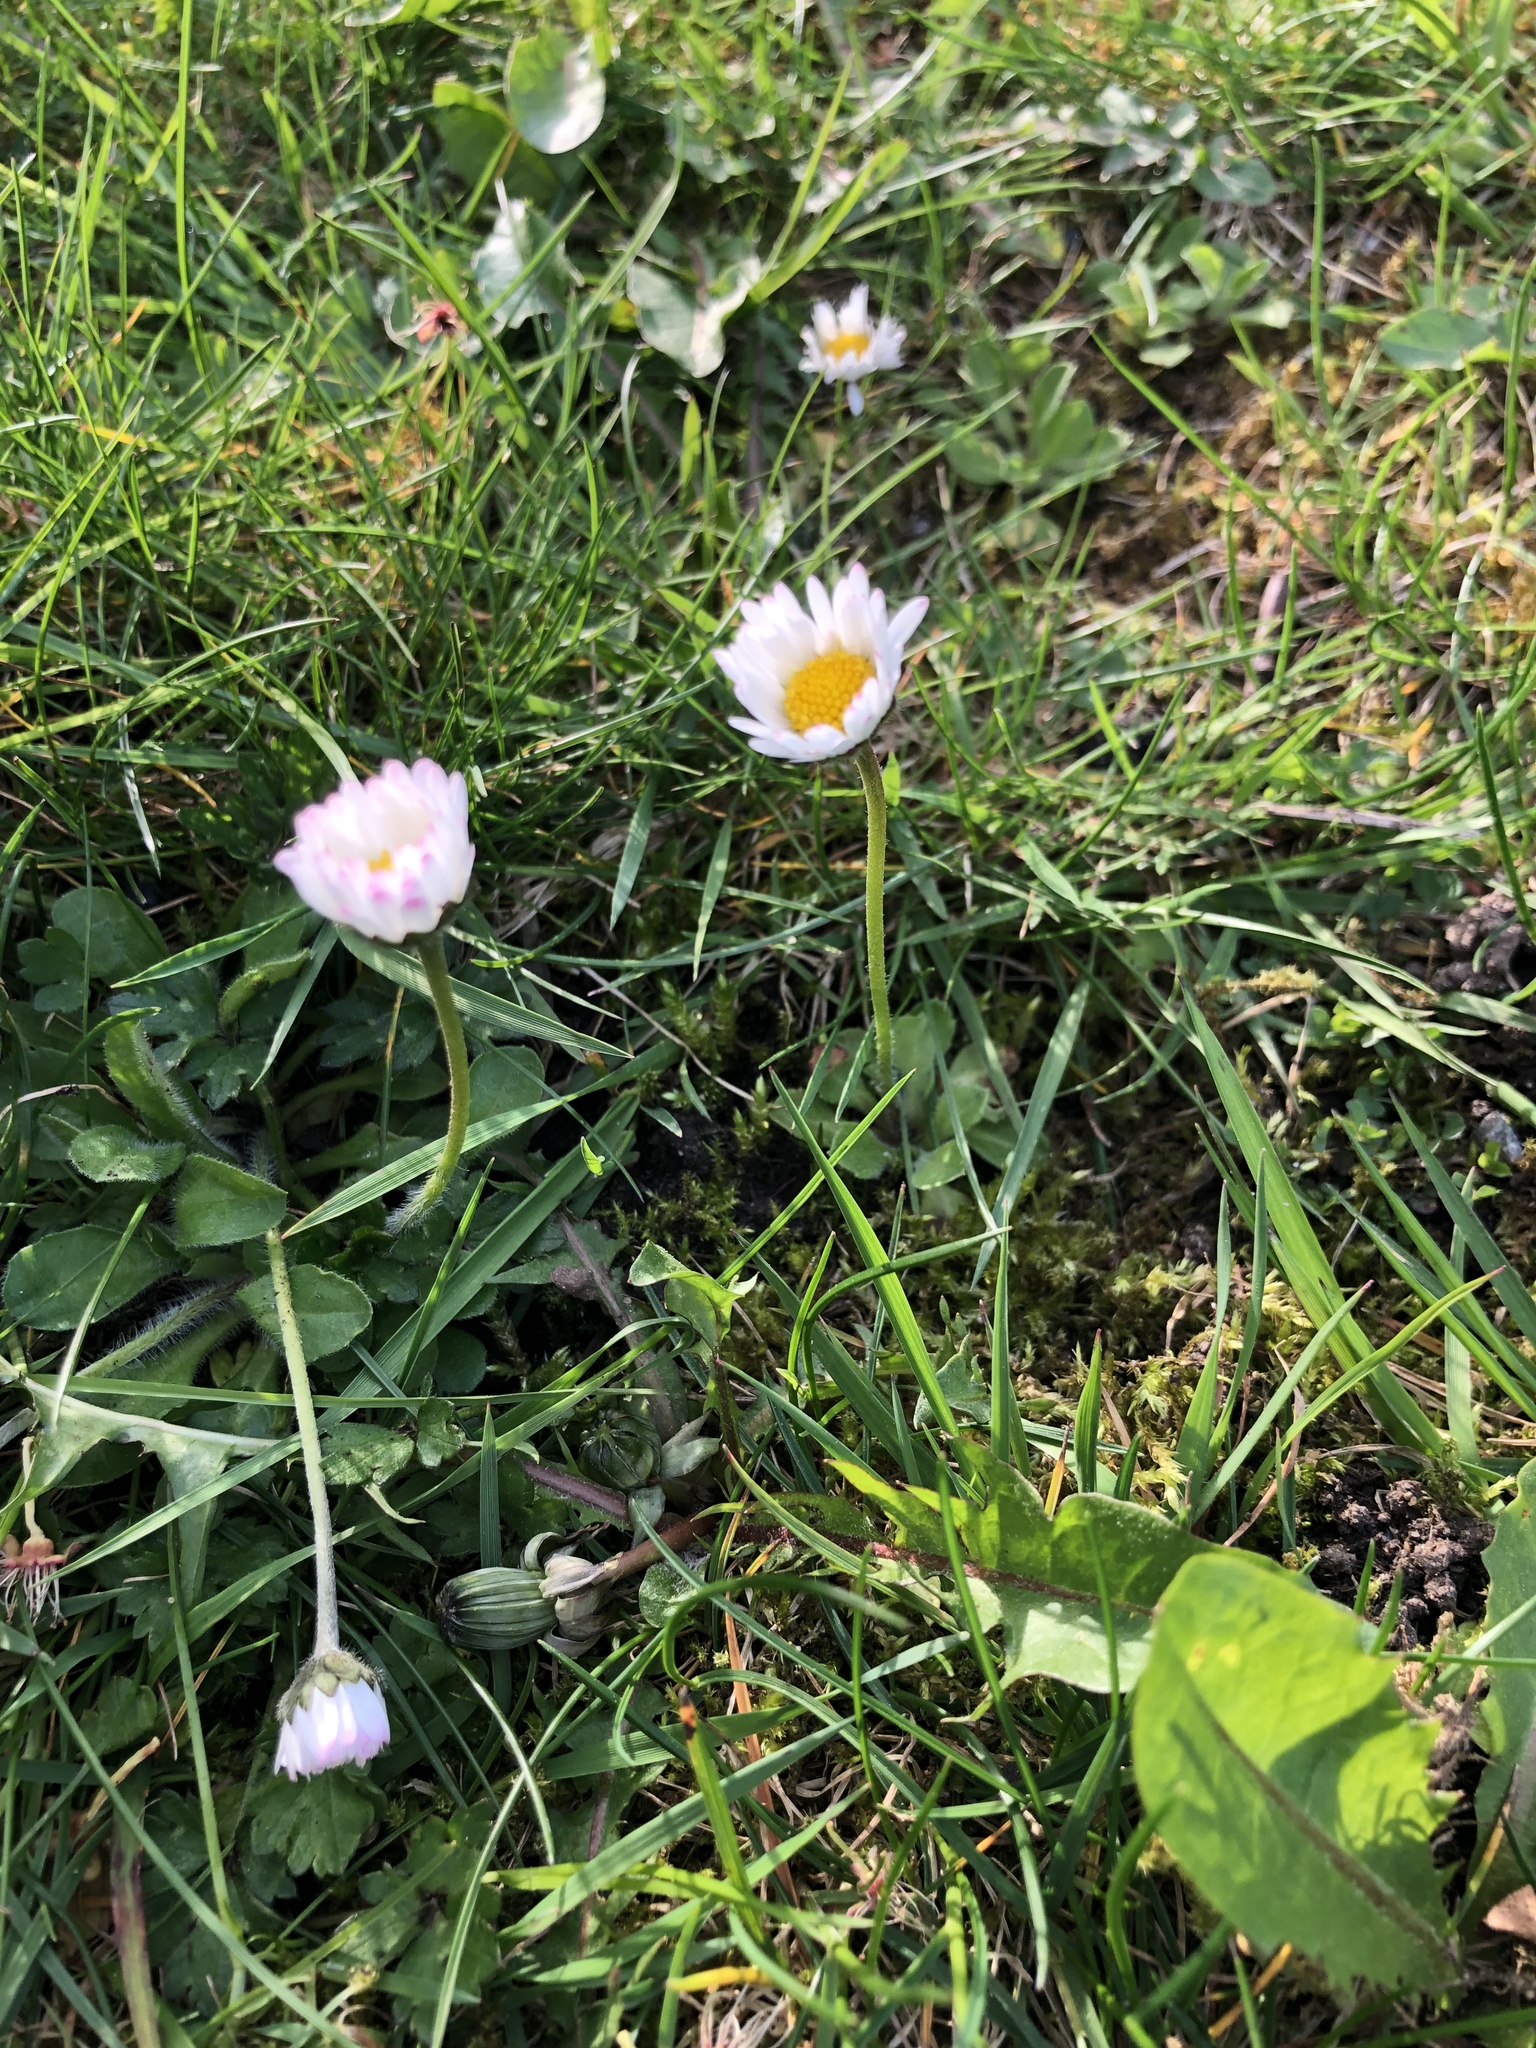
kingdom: Plantae
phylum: Tracheophyta
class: Magnoliopsida
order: Asterales
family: Asteraceae
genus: Bellis
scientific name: Bellis perennis
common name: Lawndaisy
